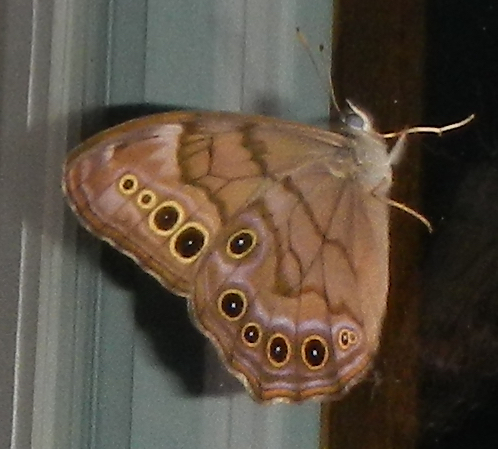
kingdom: Animalia
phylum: Arthropoda
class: Insecta
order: Lepidoptera
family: Nymphalidae
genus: Lethe
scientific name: Lethe anthedon
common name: Northern pearly-eye
